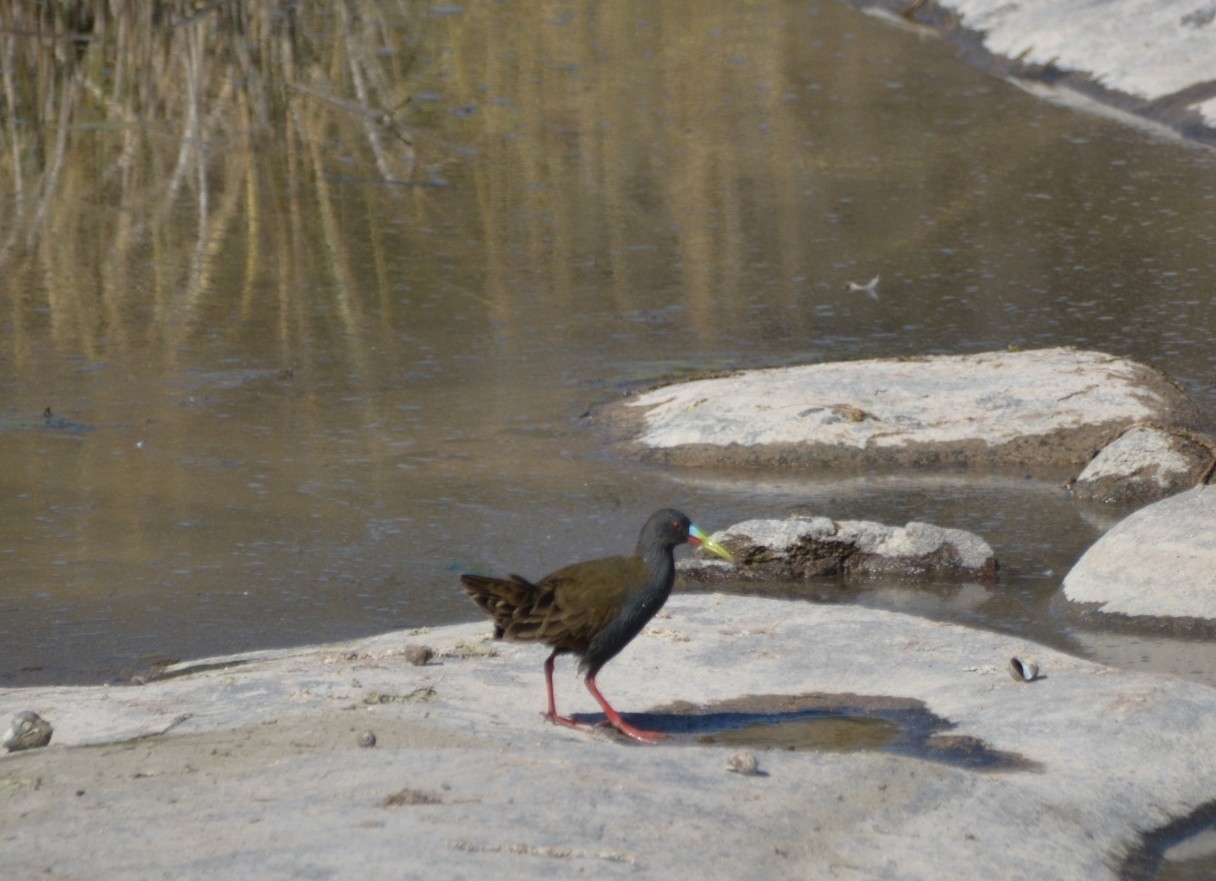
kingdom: Animalia
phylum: Chordata
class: Aves
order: Gruiformes
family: Rallidae
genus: Pardirallus
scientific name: Pardirallus sanguinolentus
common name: Plumbeous rail
